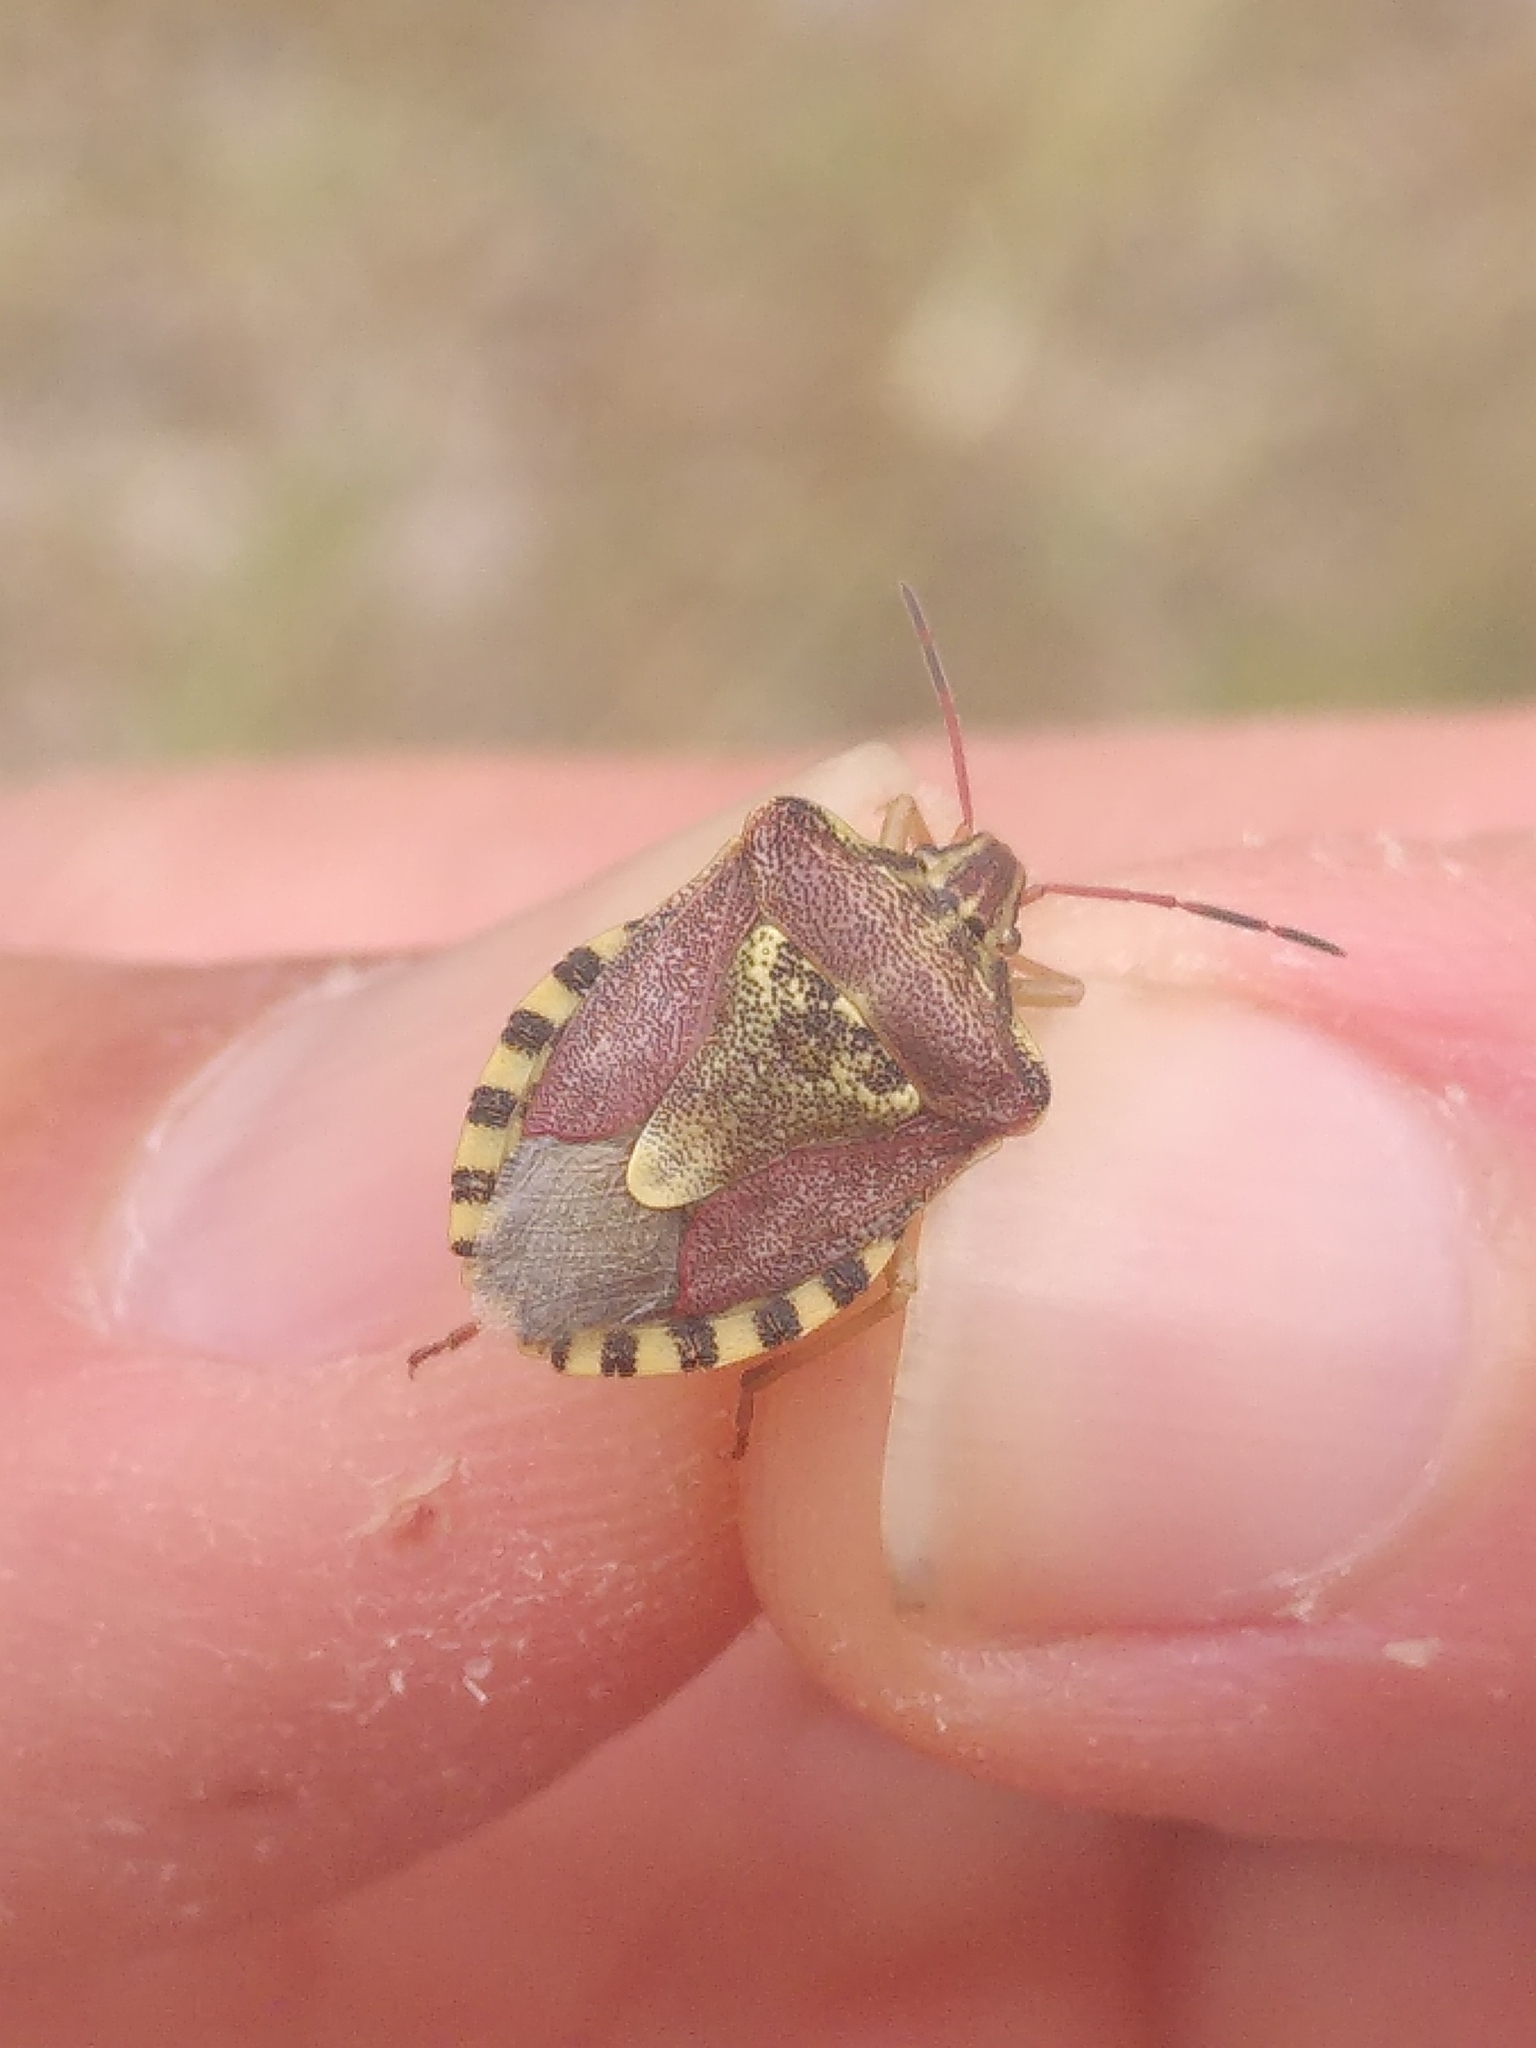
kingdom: Animalia
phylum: Arthropoda
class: Insecta
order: Hemiptera
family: Miridae
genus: Orthops
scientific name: Orthops kalmii
